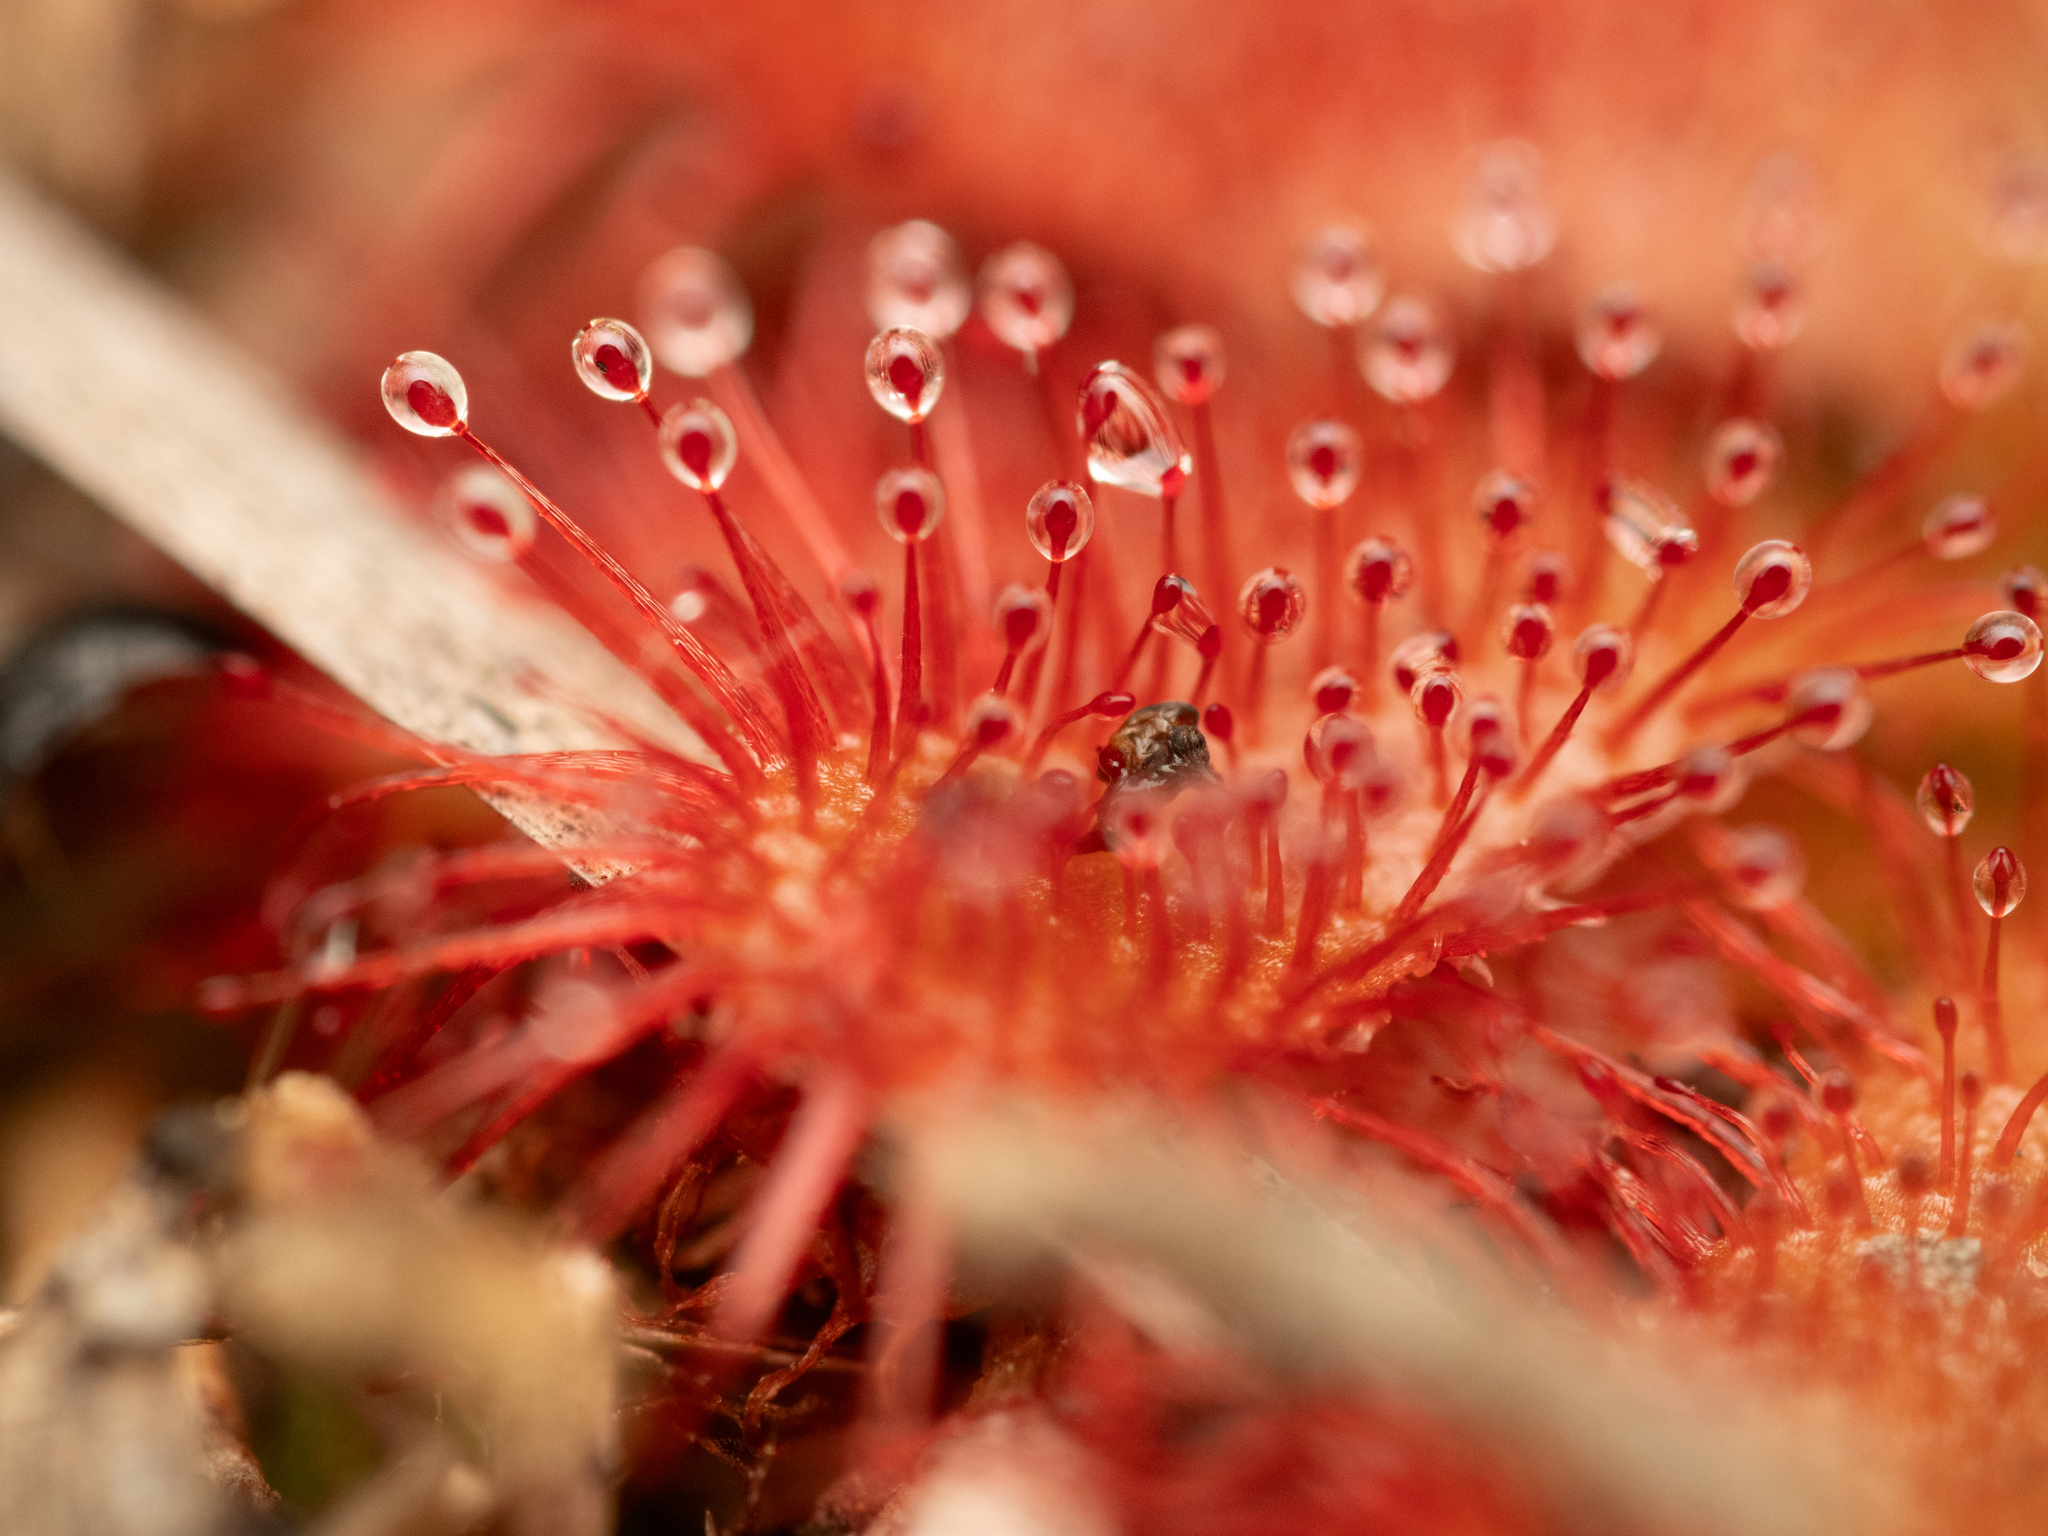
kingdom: Plantae
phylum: Tracheophyta
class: Magnoliopsida
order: Caryophyllales
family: Droseraceae
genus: Drosera
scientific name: Drosera spatulata
